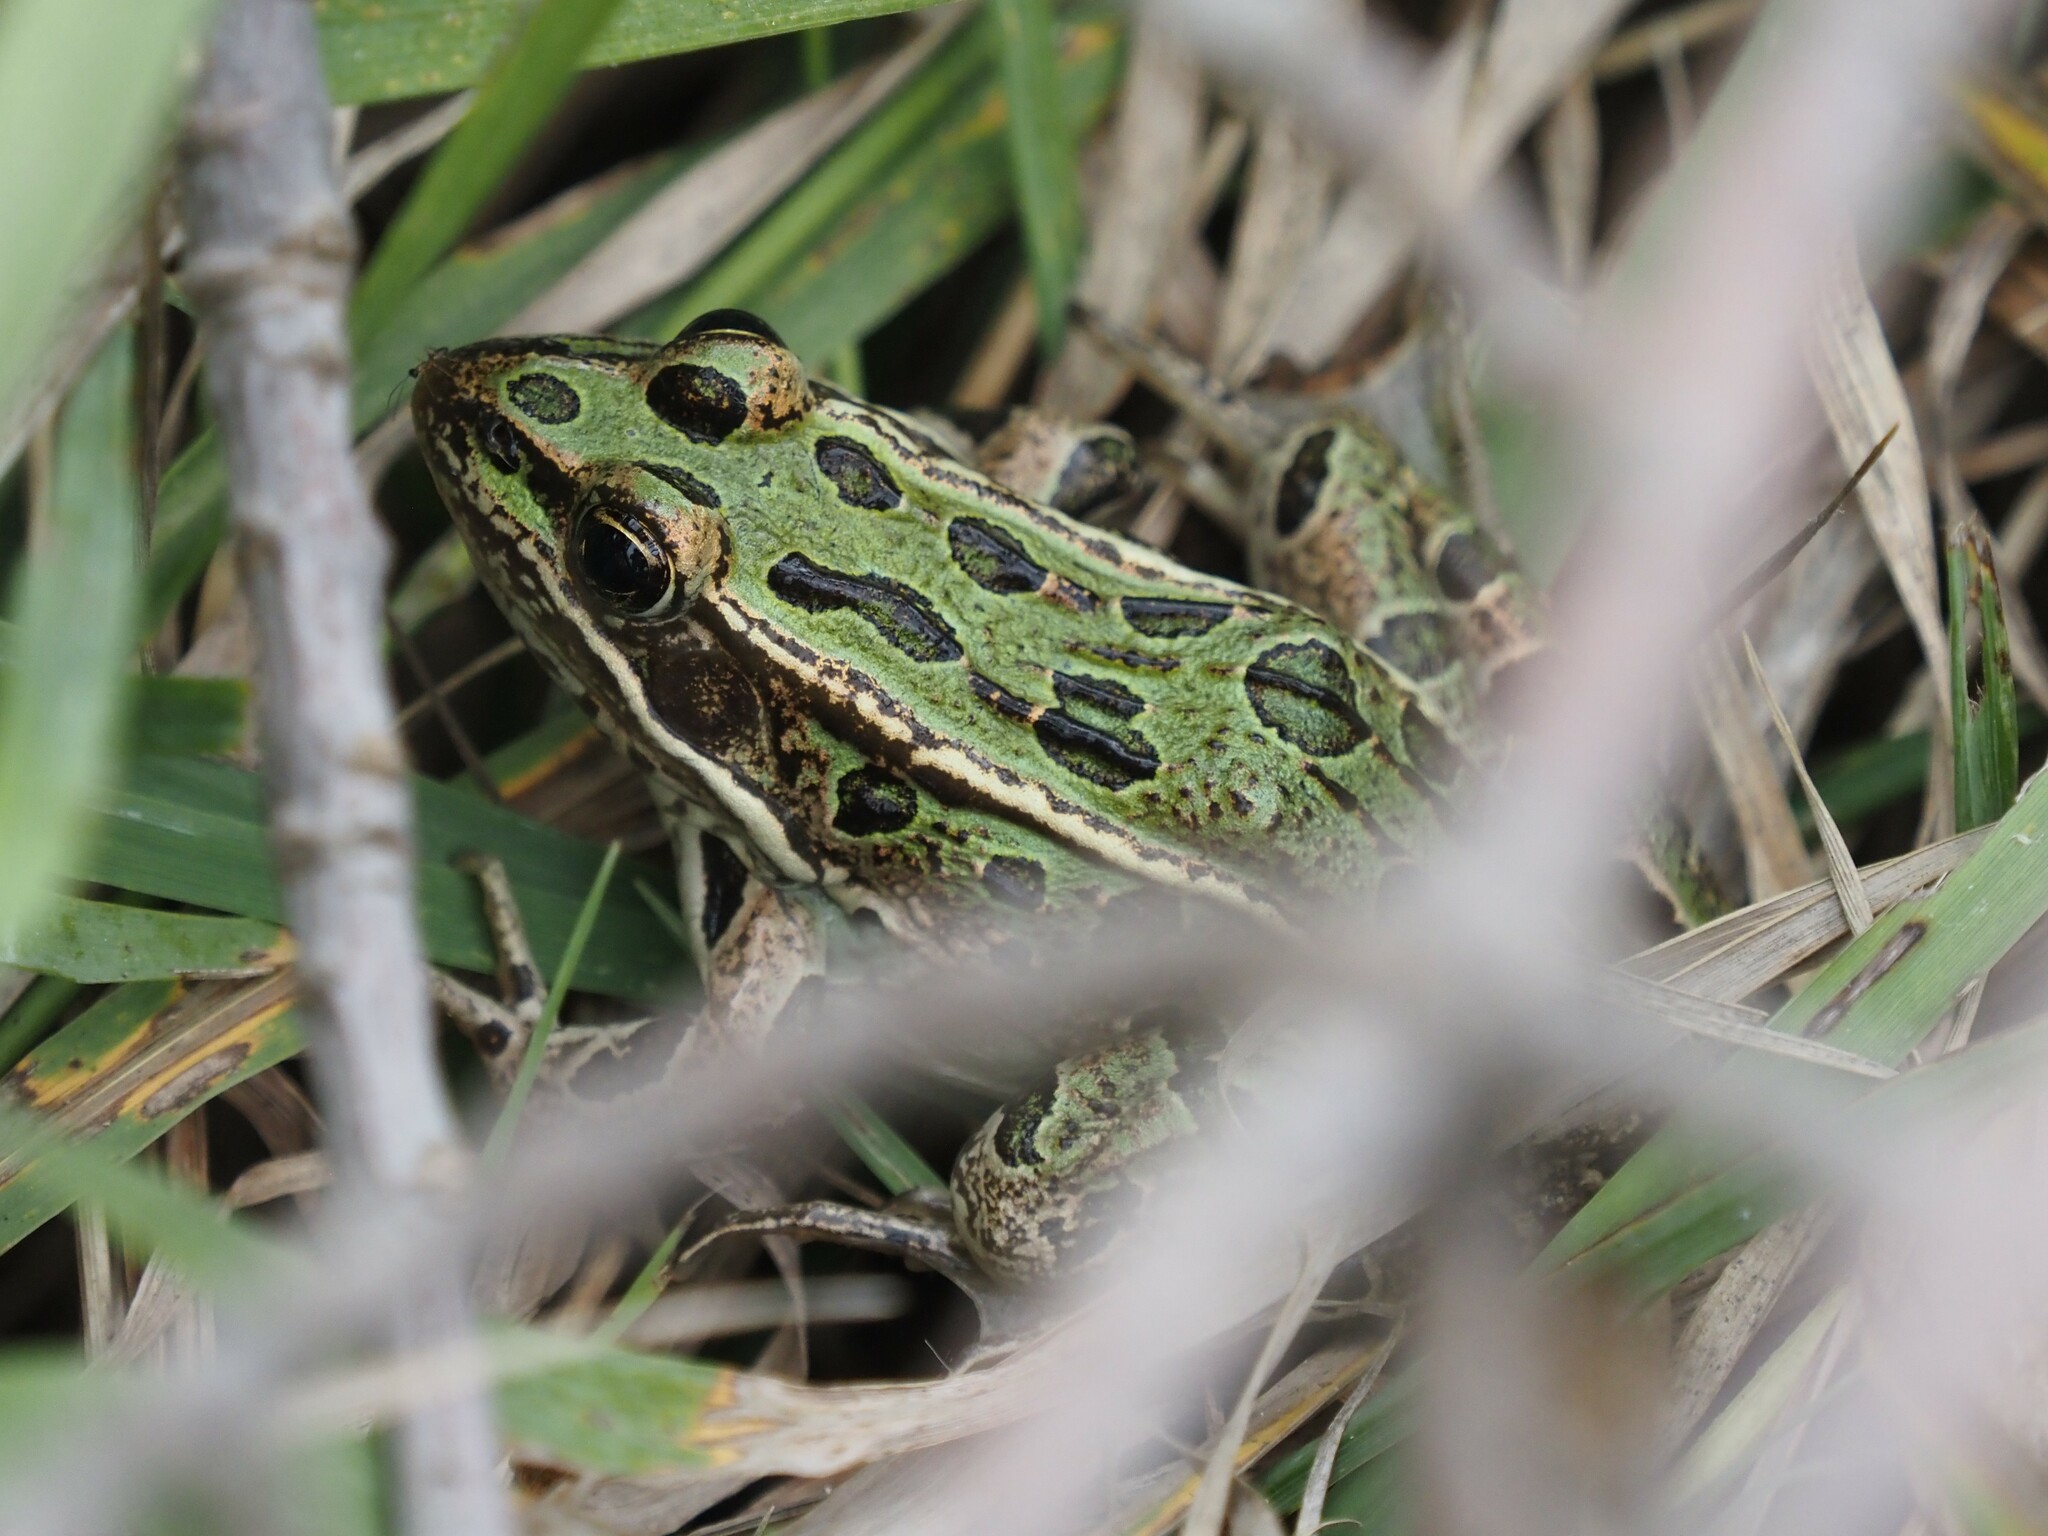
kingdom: Animalia
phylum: Chordata
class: Amphibia
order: Anura
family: Ranidae
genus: Lithobates
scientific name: Lithobates pipiens
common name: Northern leopard frog
